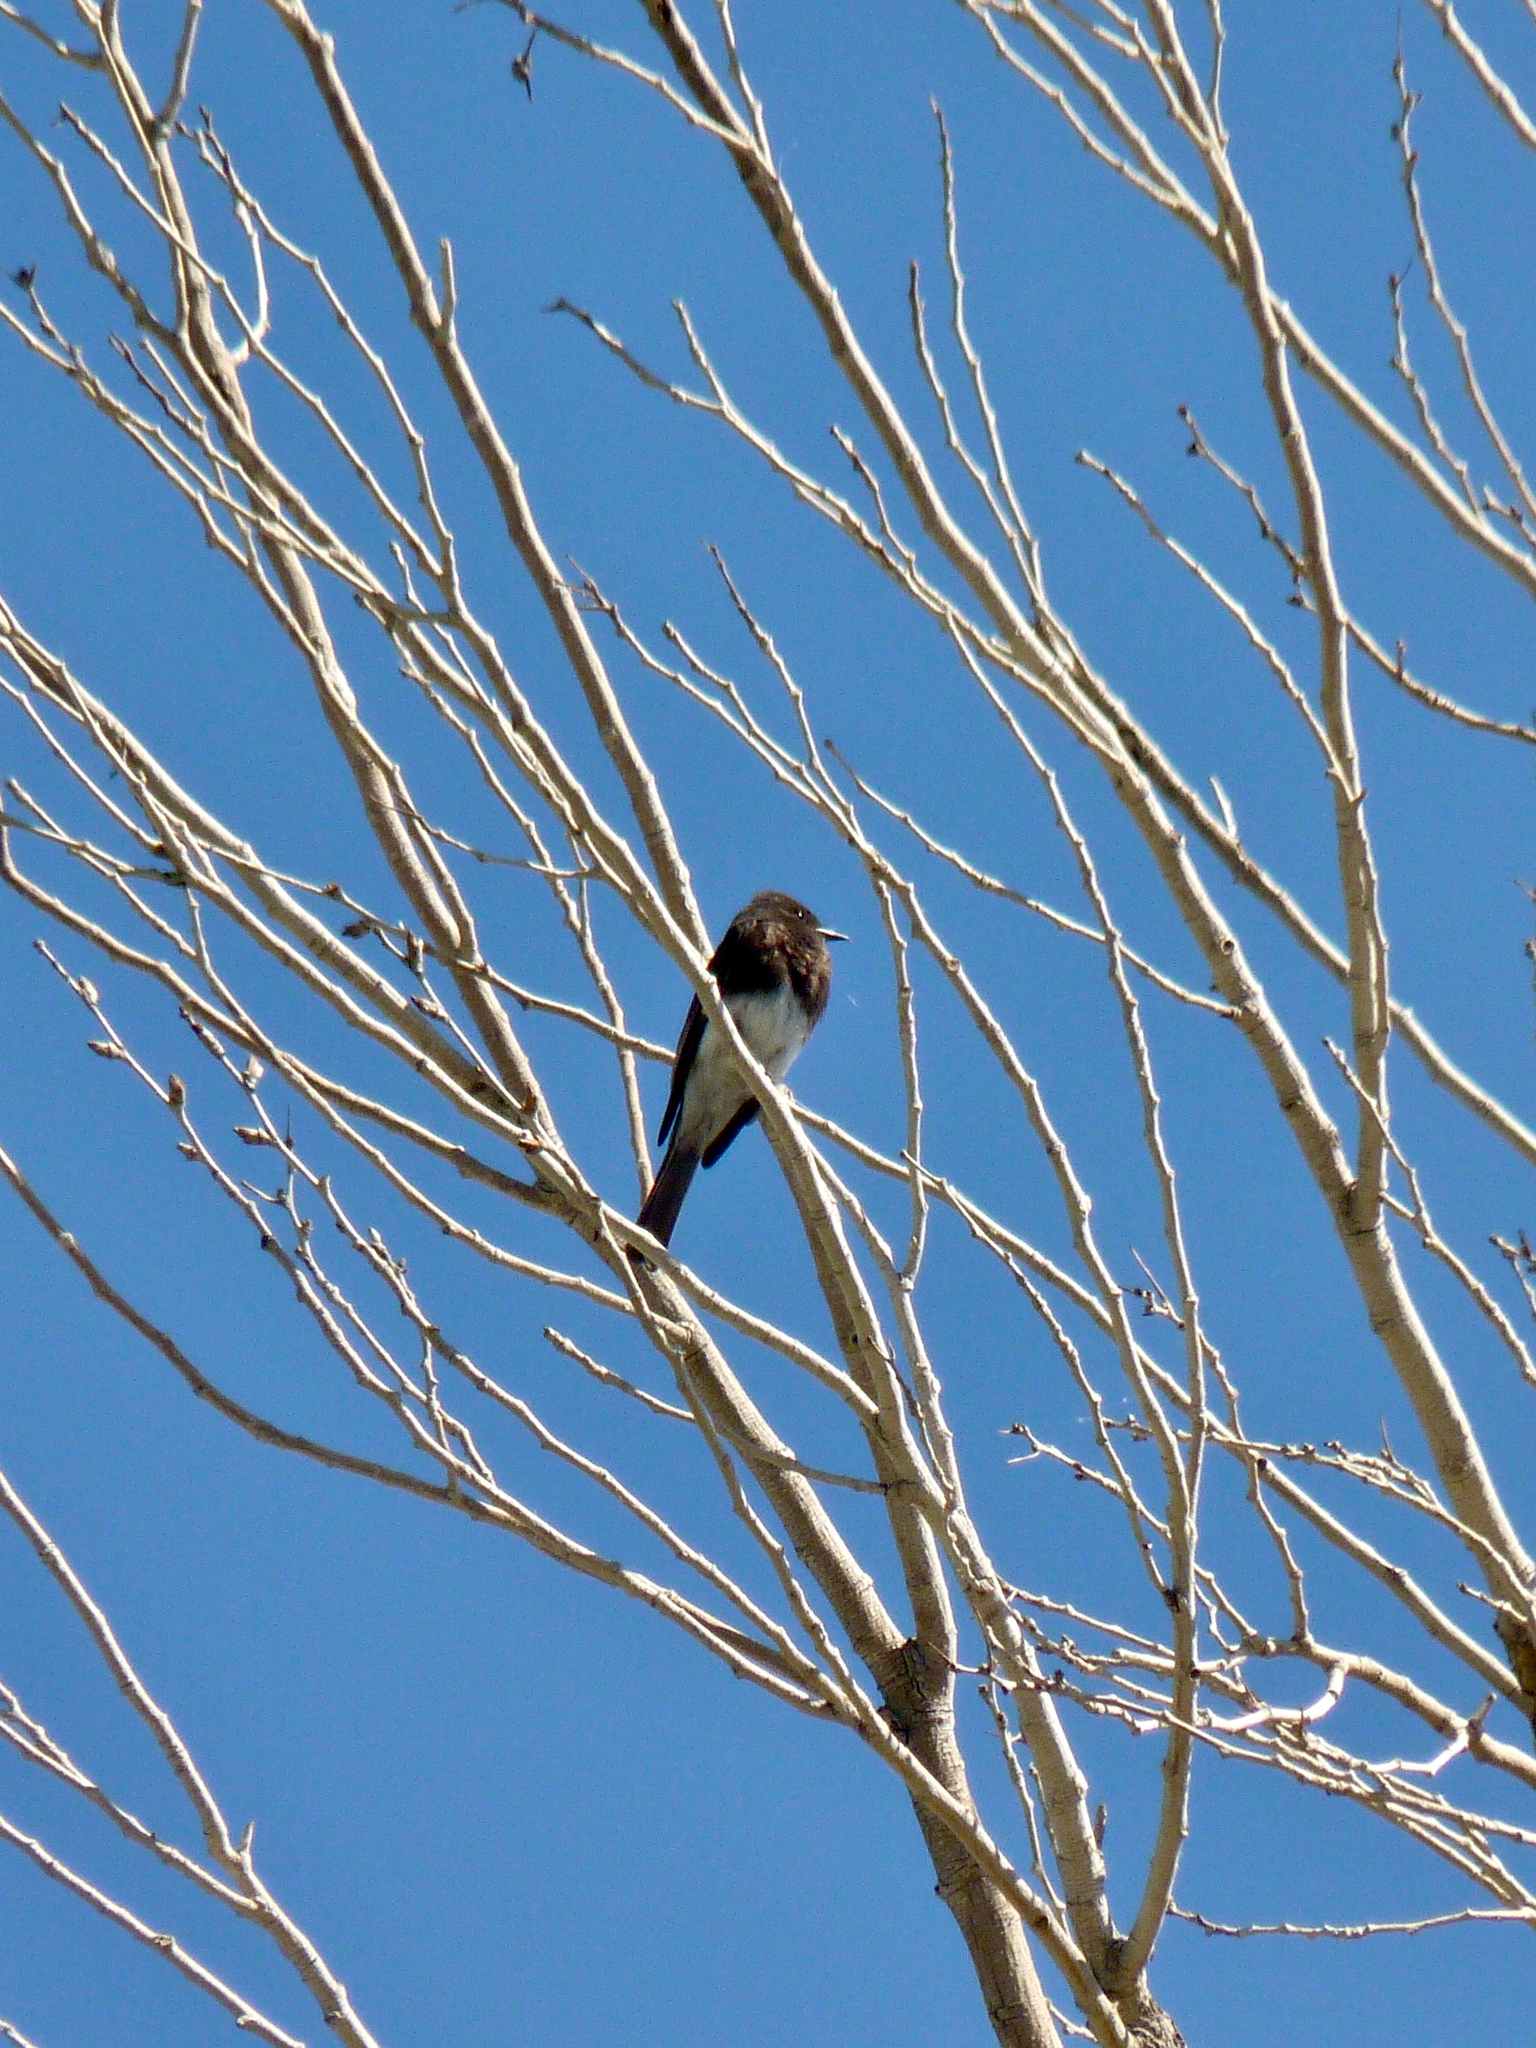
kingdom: Animalia
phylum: Chordata
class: Aves
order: Passeriformes
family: Tyrannidae
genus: Sayornis
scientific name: Sayornis nigricans
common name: Black phoebe
